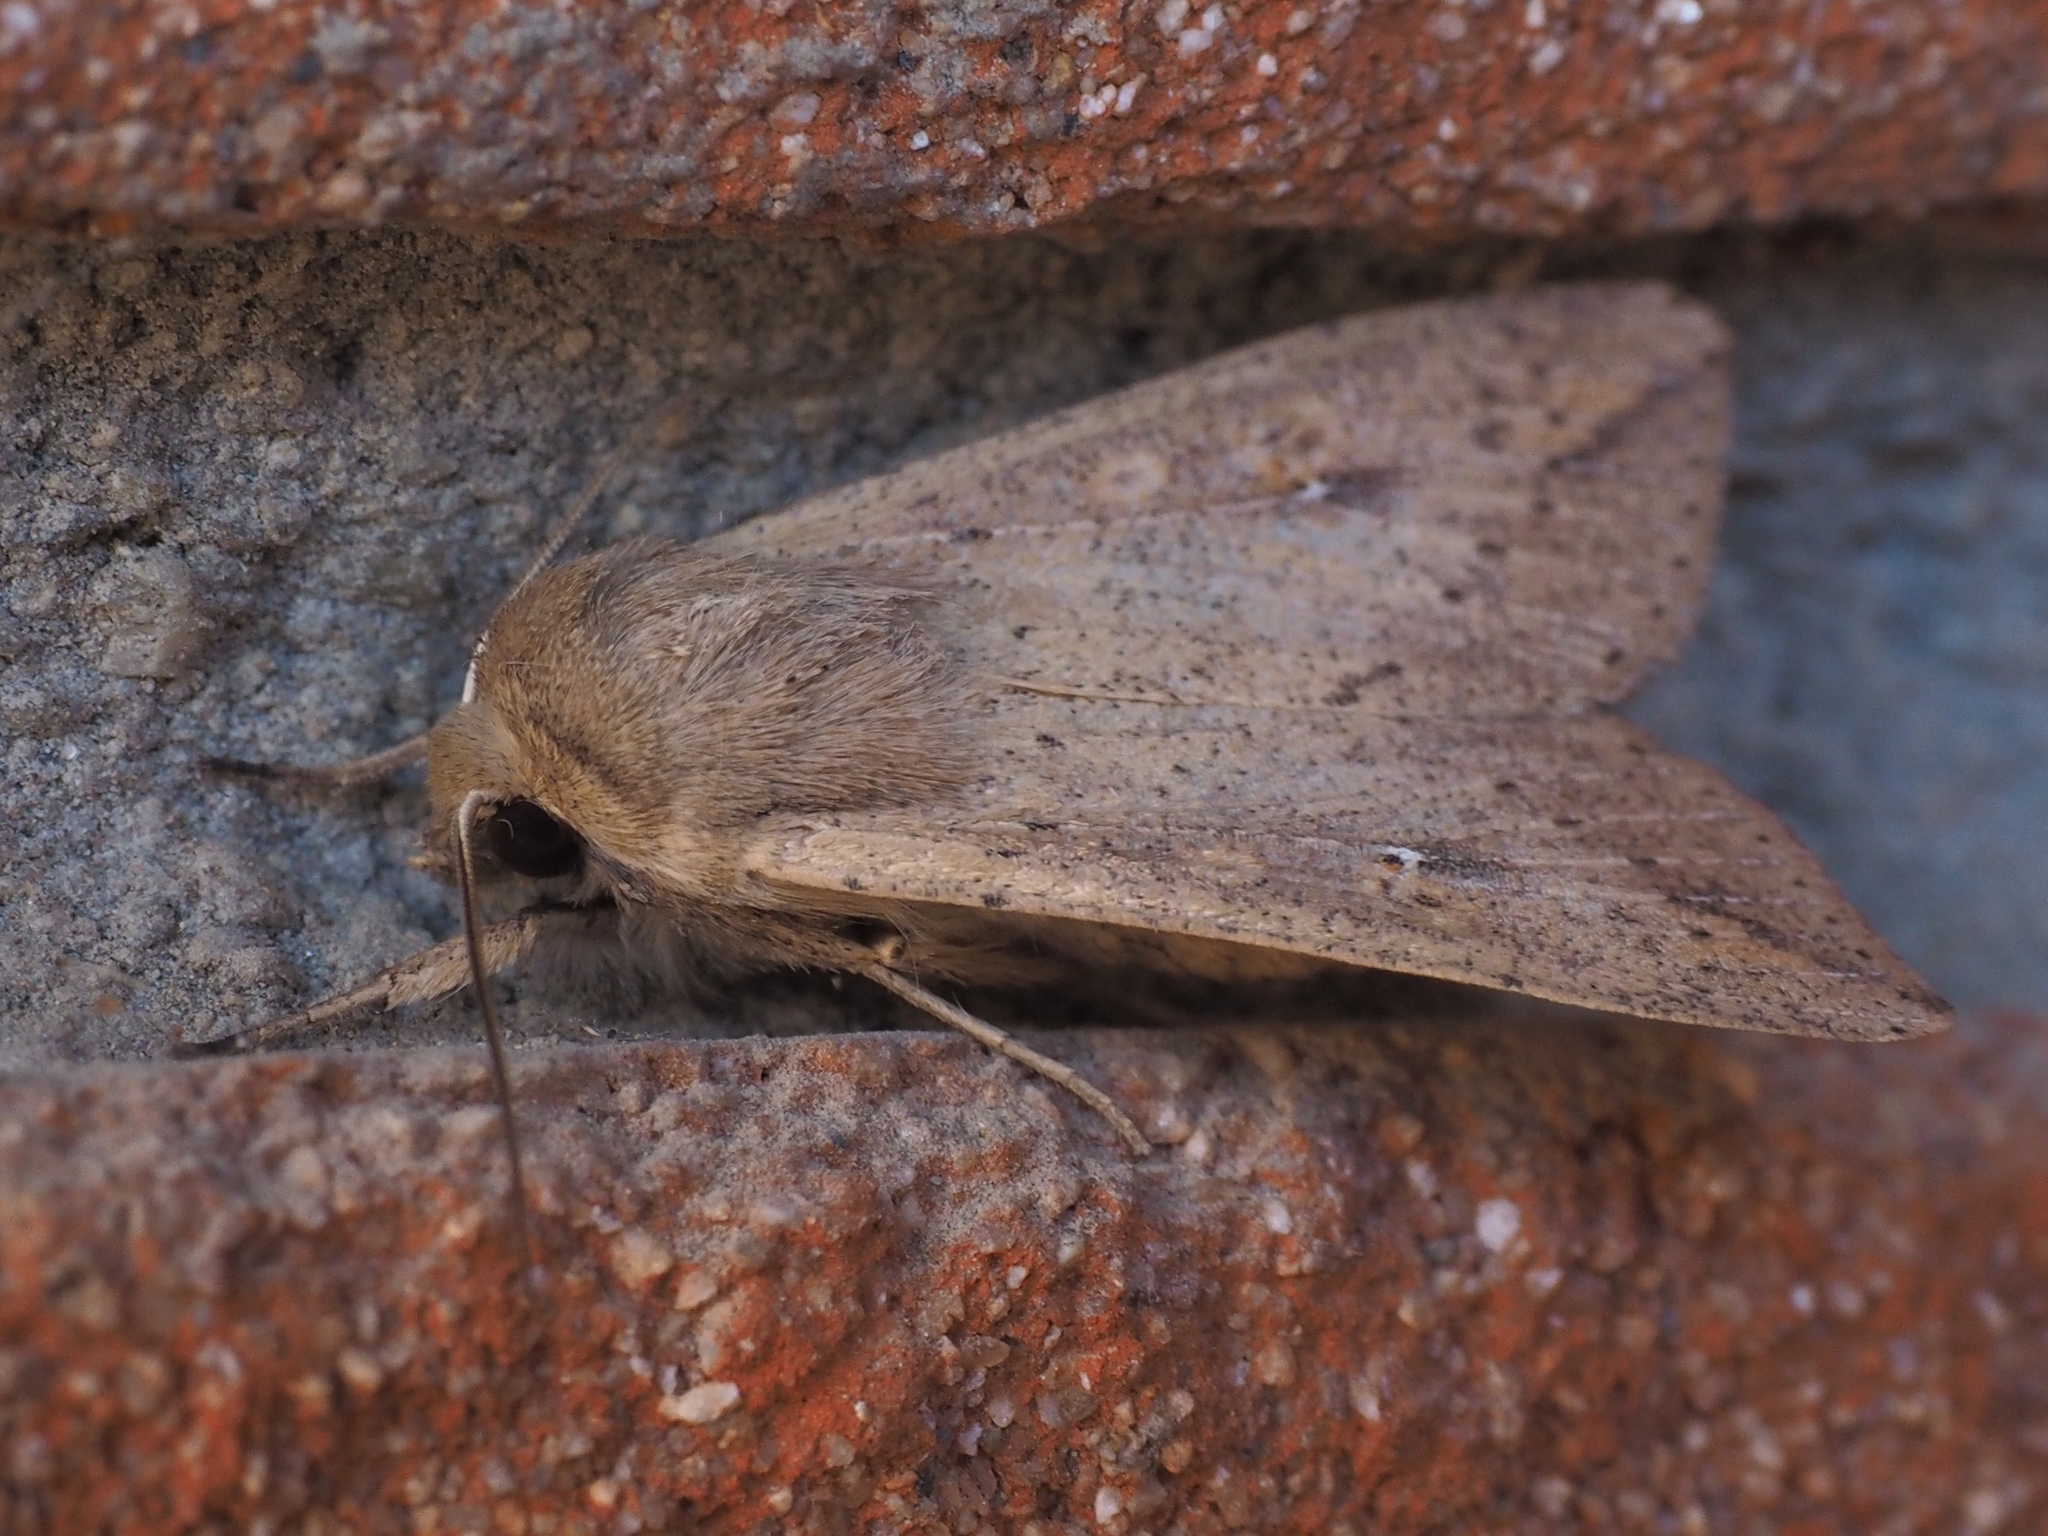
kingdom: Animalia
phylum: Arthropoda
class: Insecta
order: Lepidoptera
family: Noctuidae
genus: Mythimna
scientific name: Mythimna unipuncta
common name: White-speck
